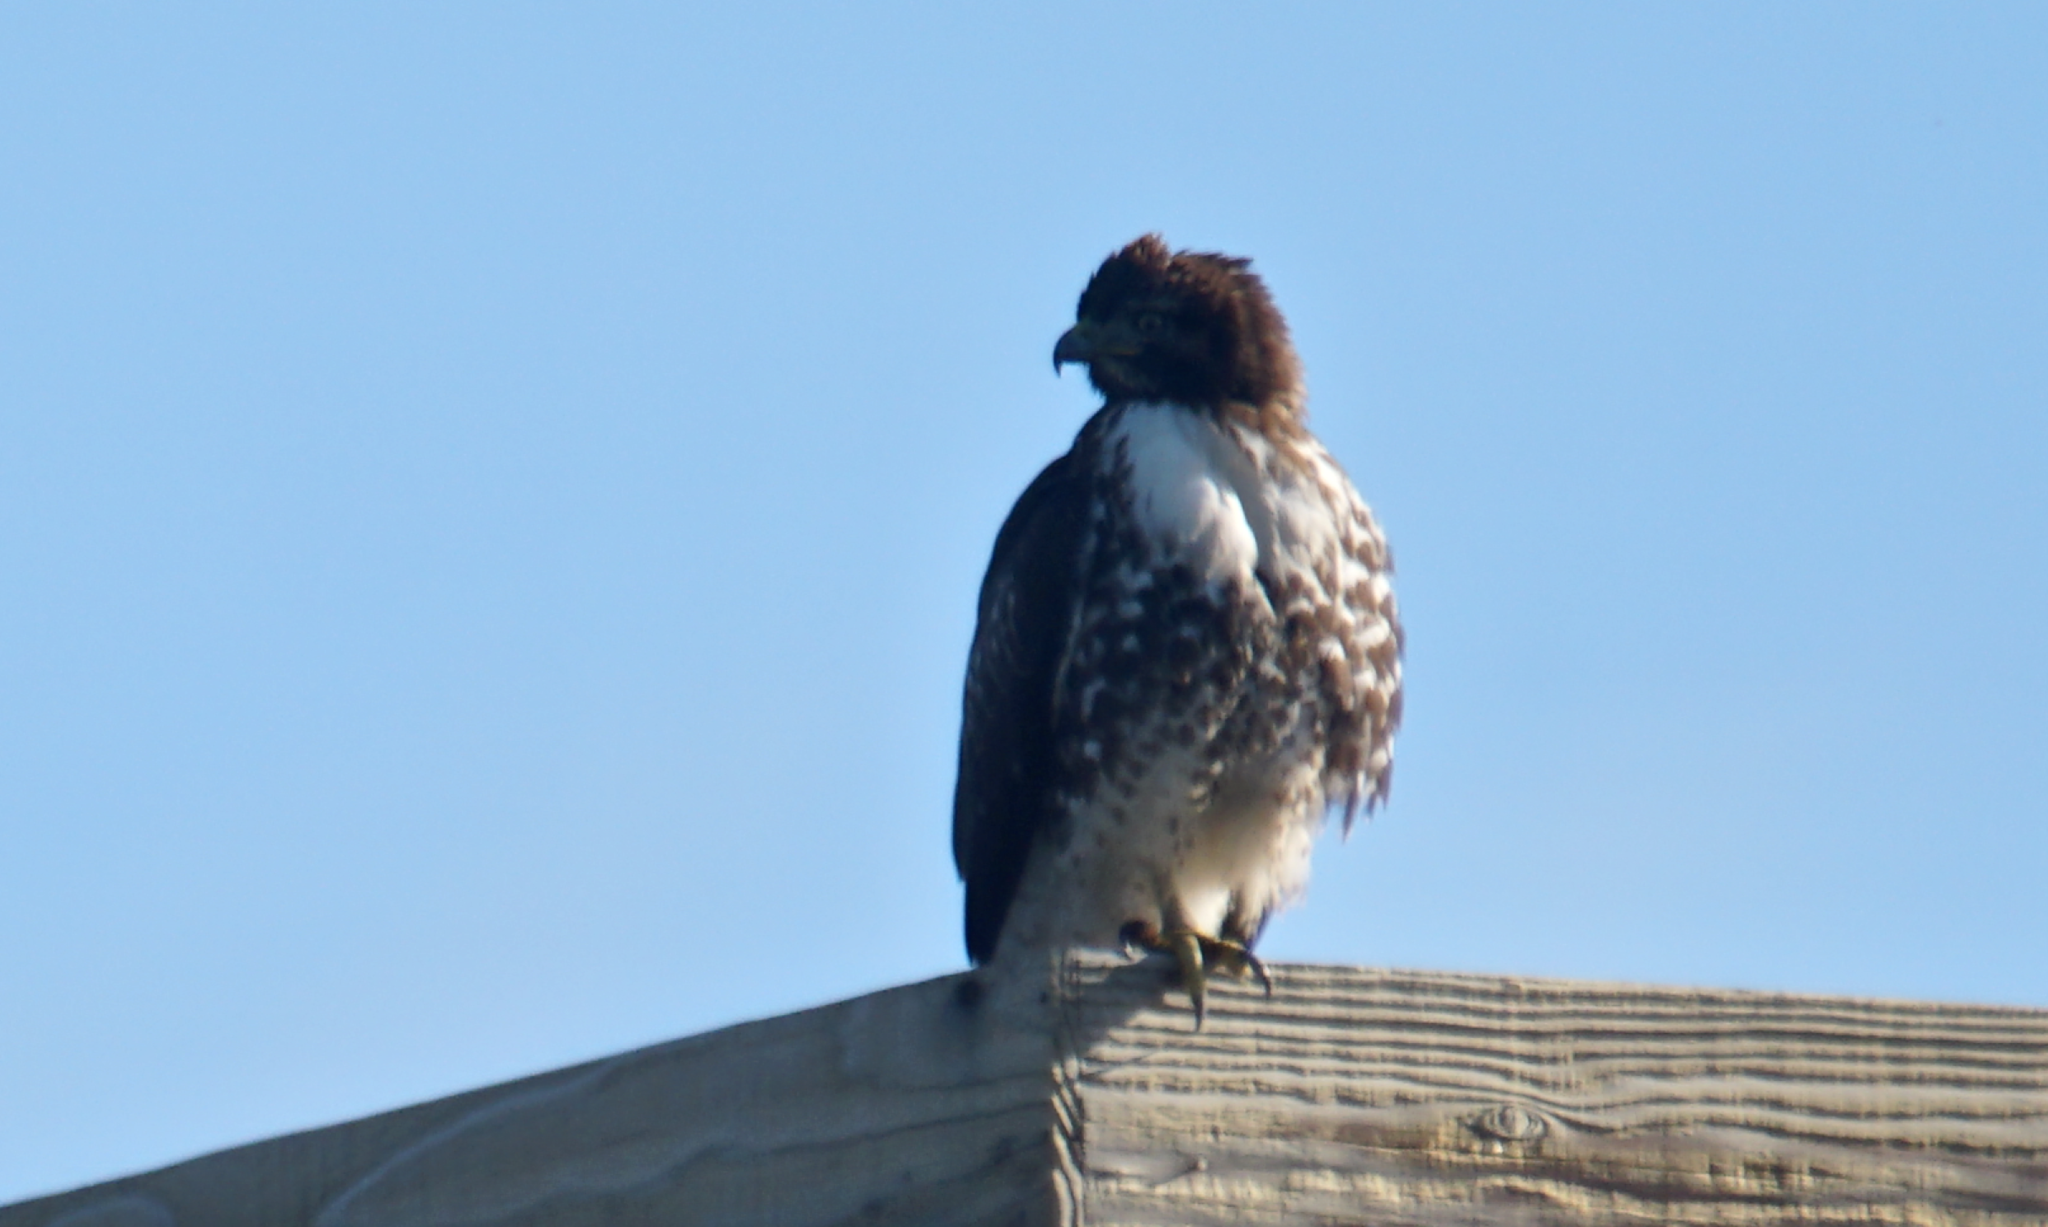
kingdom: Animalia
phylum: Chordata
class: Aves
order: Accipitriformes
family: Accipitridae
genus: Buteo
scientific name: Buteo jamaicensis
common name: Red-tailed hawk
